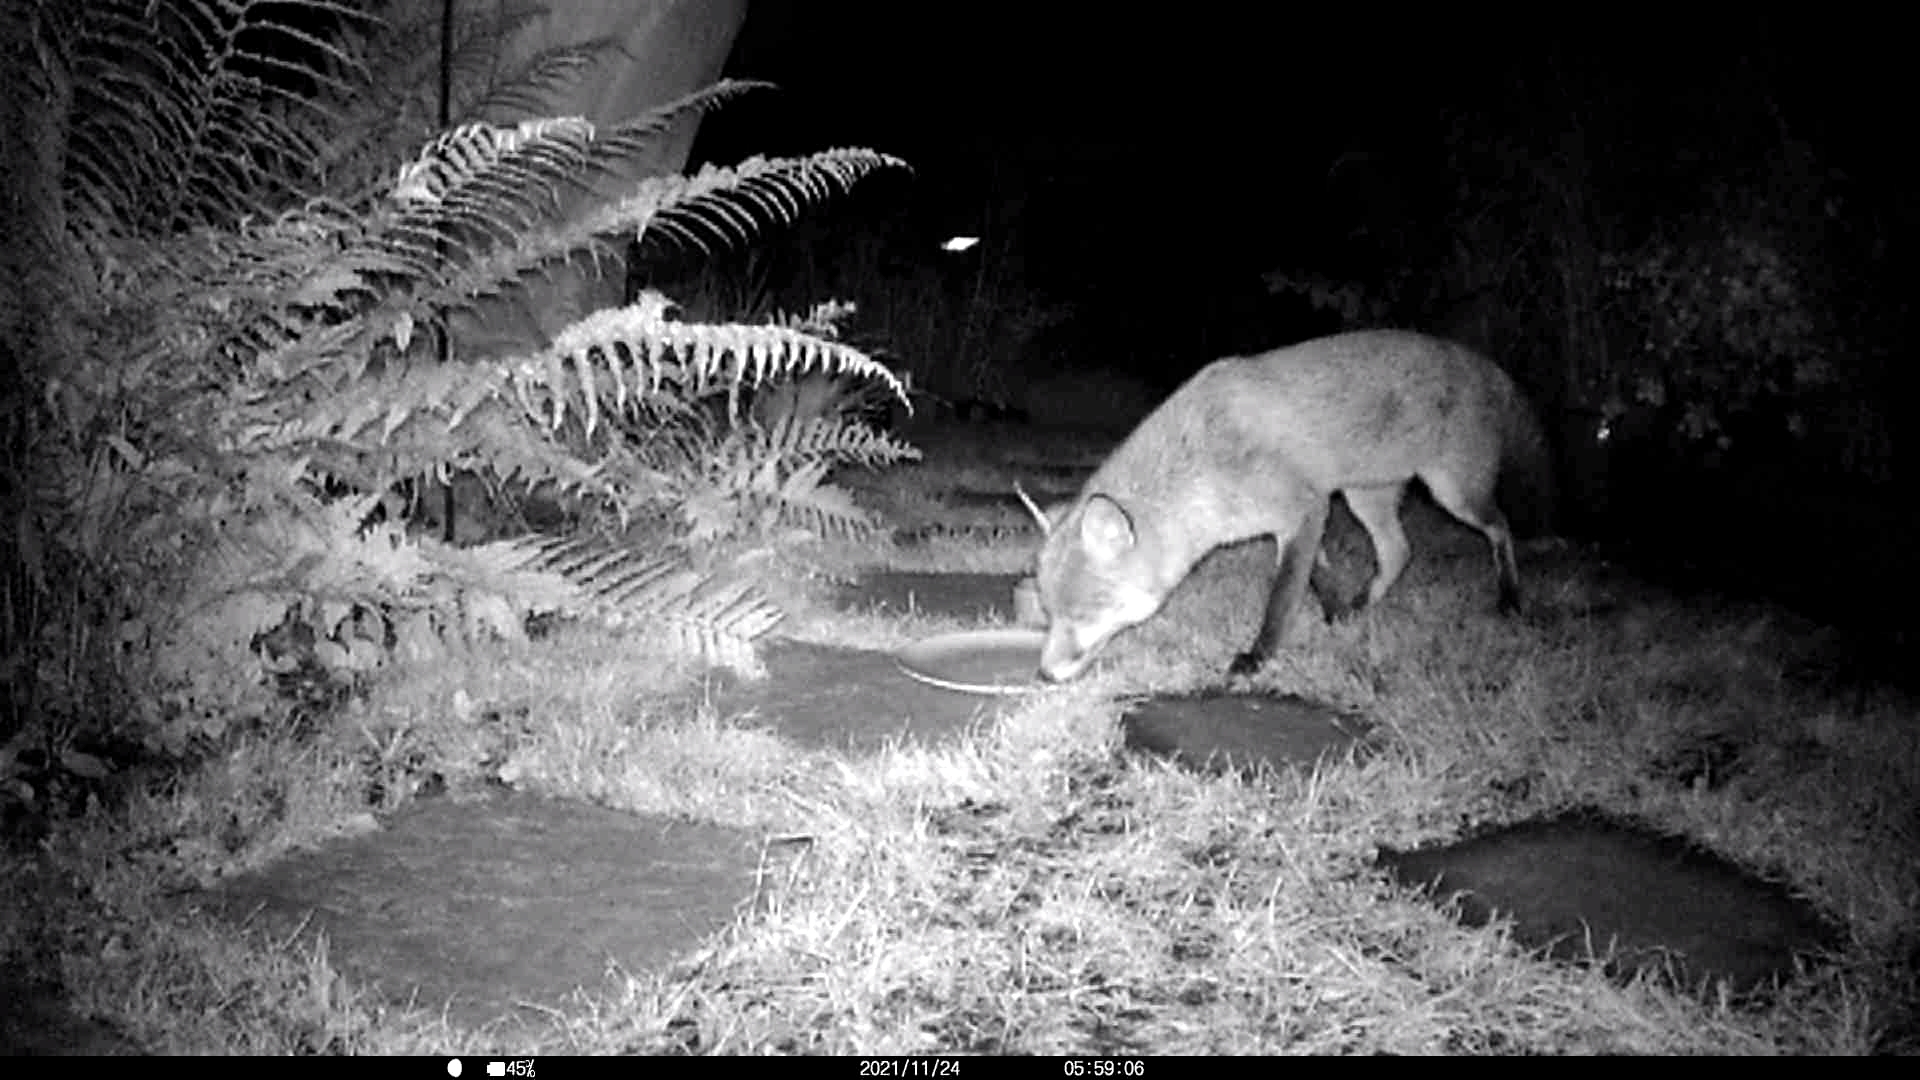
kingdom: Animalia
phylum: Chordata
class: Mammalia
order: Carnivora
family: Canidae
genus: Vulpes
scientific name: Vulpes vulpes
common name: Red fox
